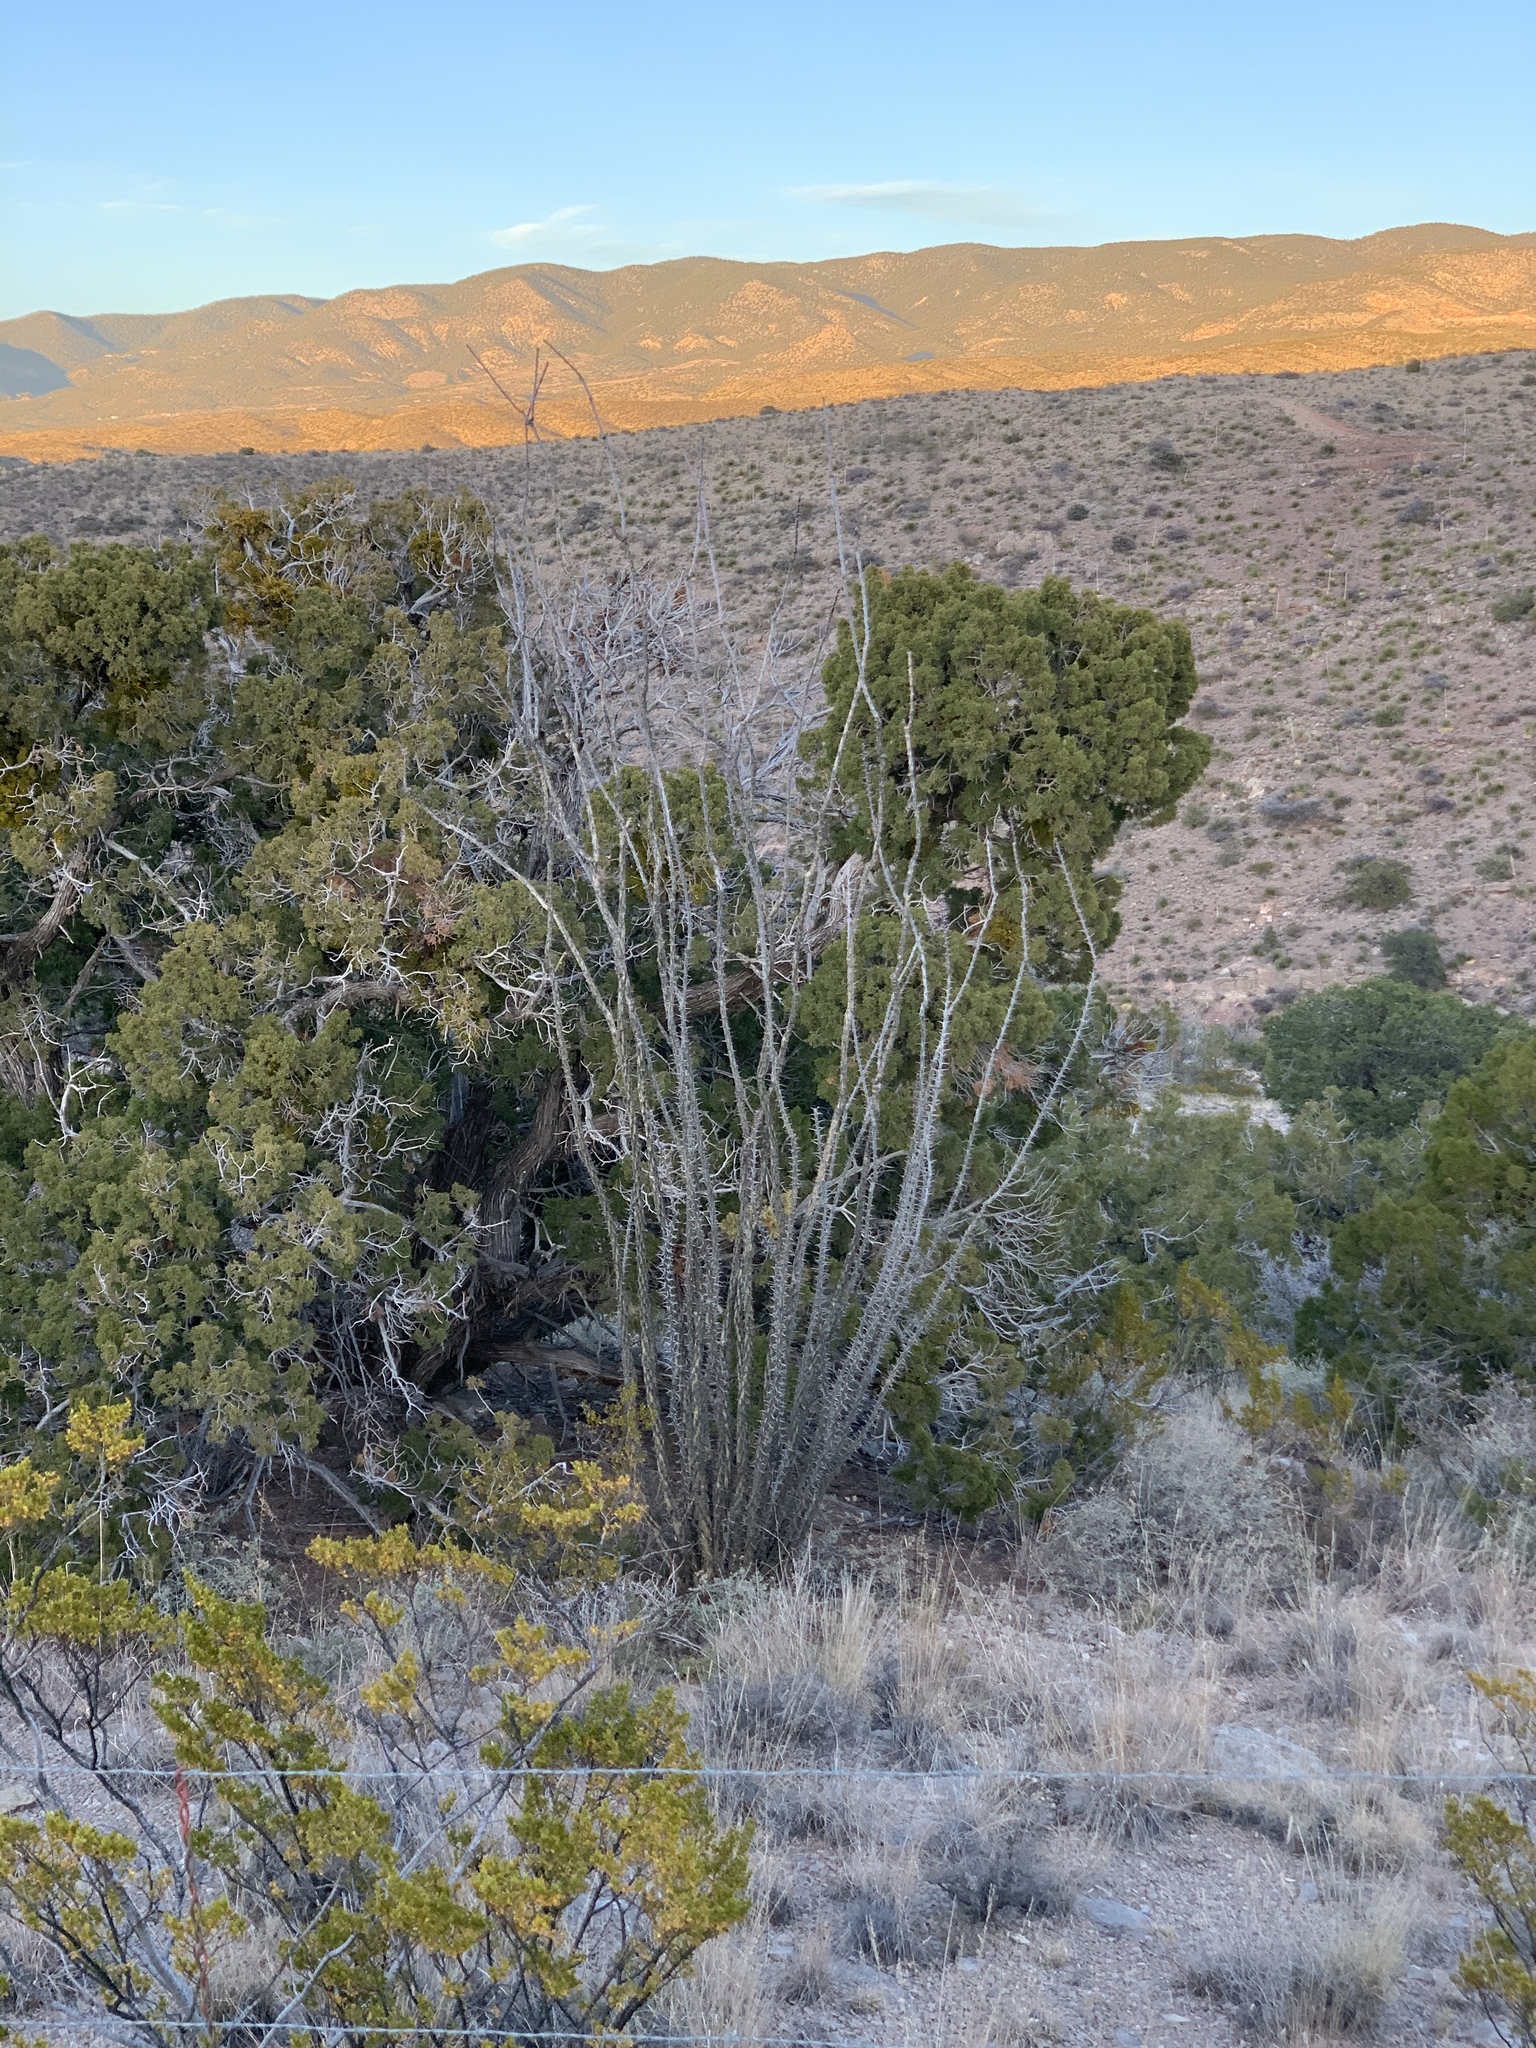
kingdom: Plantae
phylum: Tracheophyta
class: Magnoliopsida
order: Ericales
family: Fouquieriaceae
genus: Fouquieria
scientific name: Fouquieria splendens
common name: Vine-cactus
